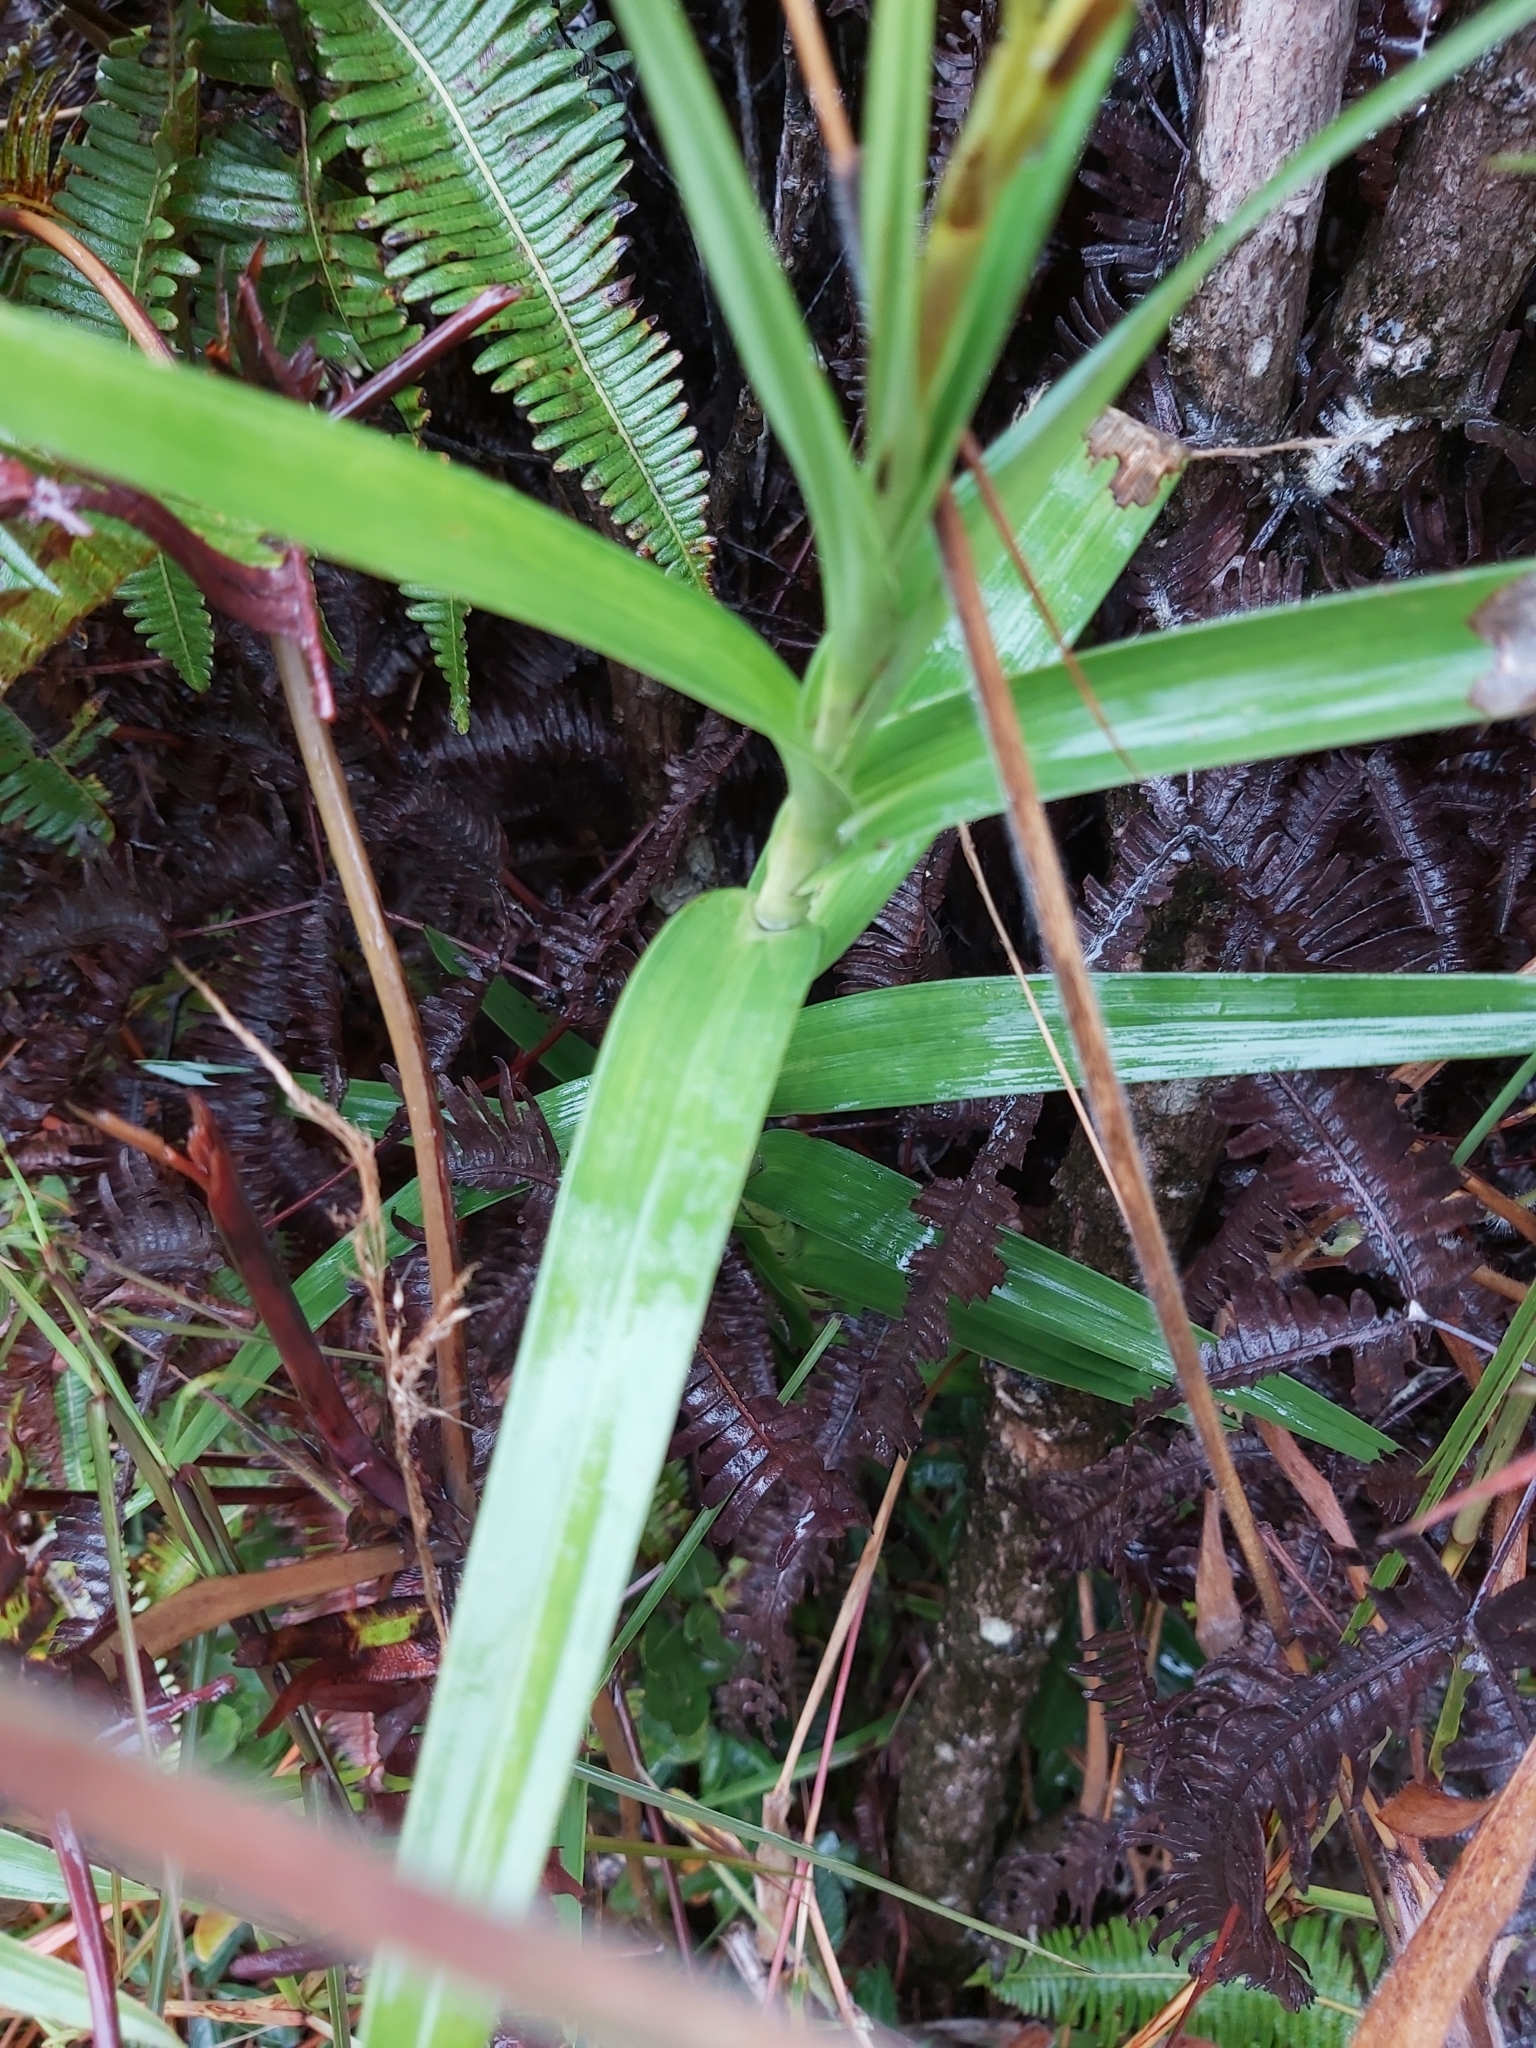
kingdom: Plantae
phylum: Tracheophyta
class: Liliopsida
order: Asparagales
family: Orchidaceae
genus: Arundina
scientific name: Arundina graminifolia
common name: Bamboo orchid
